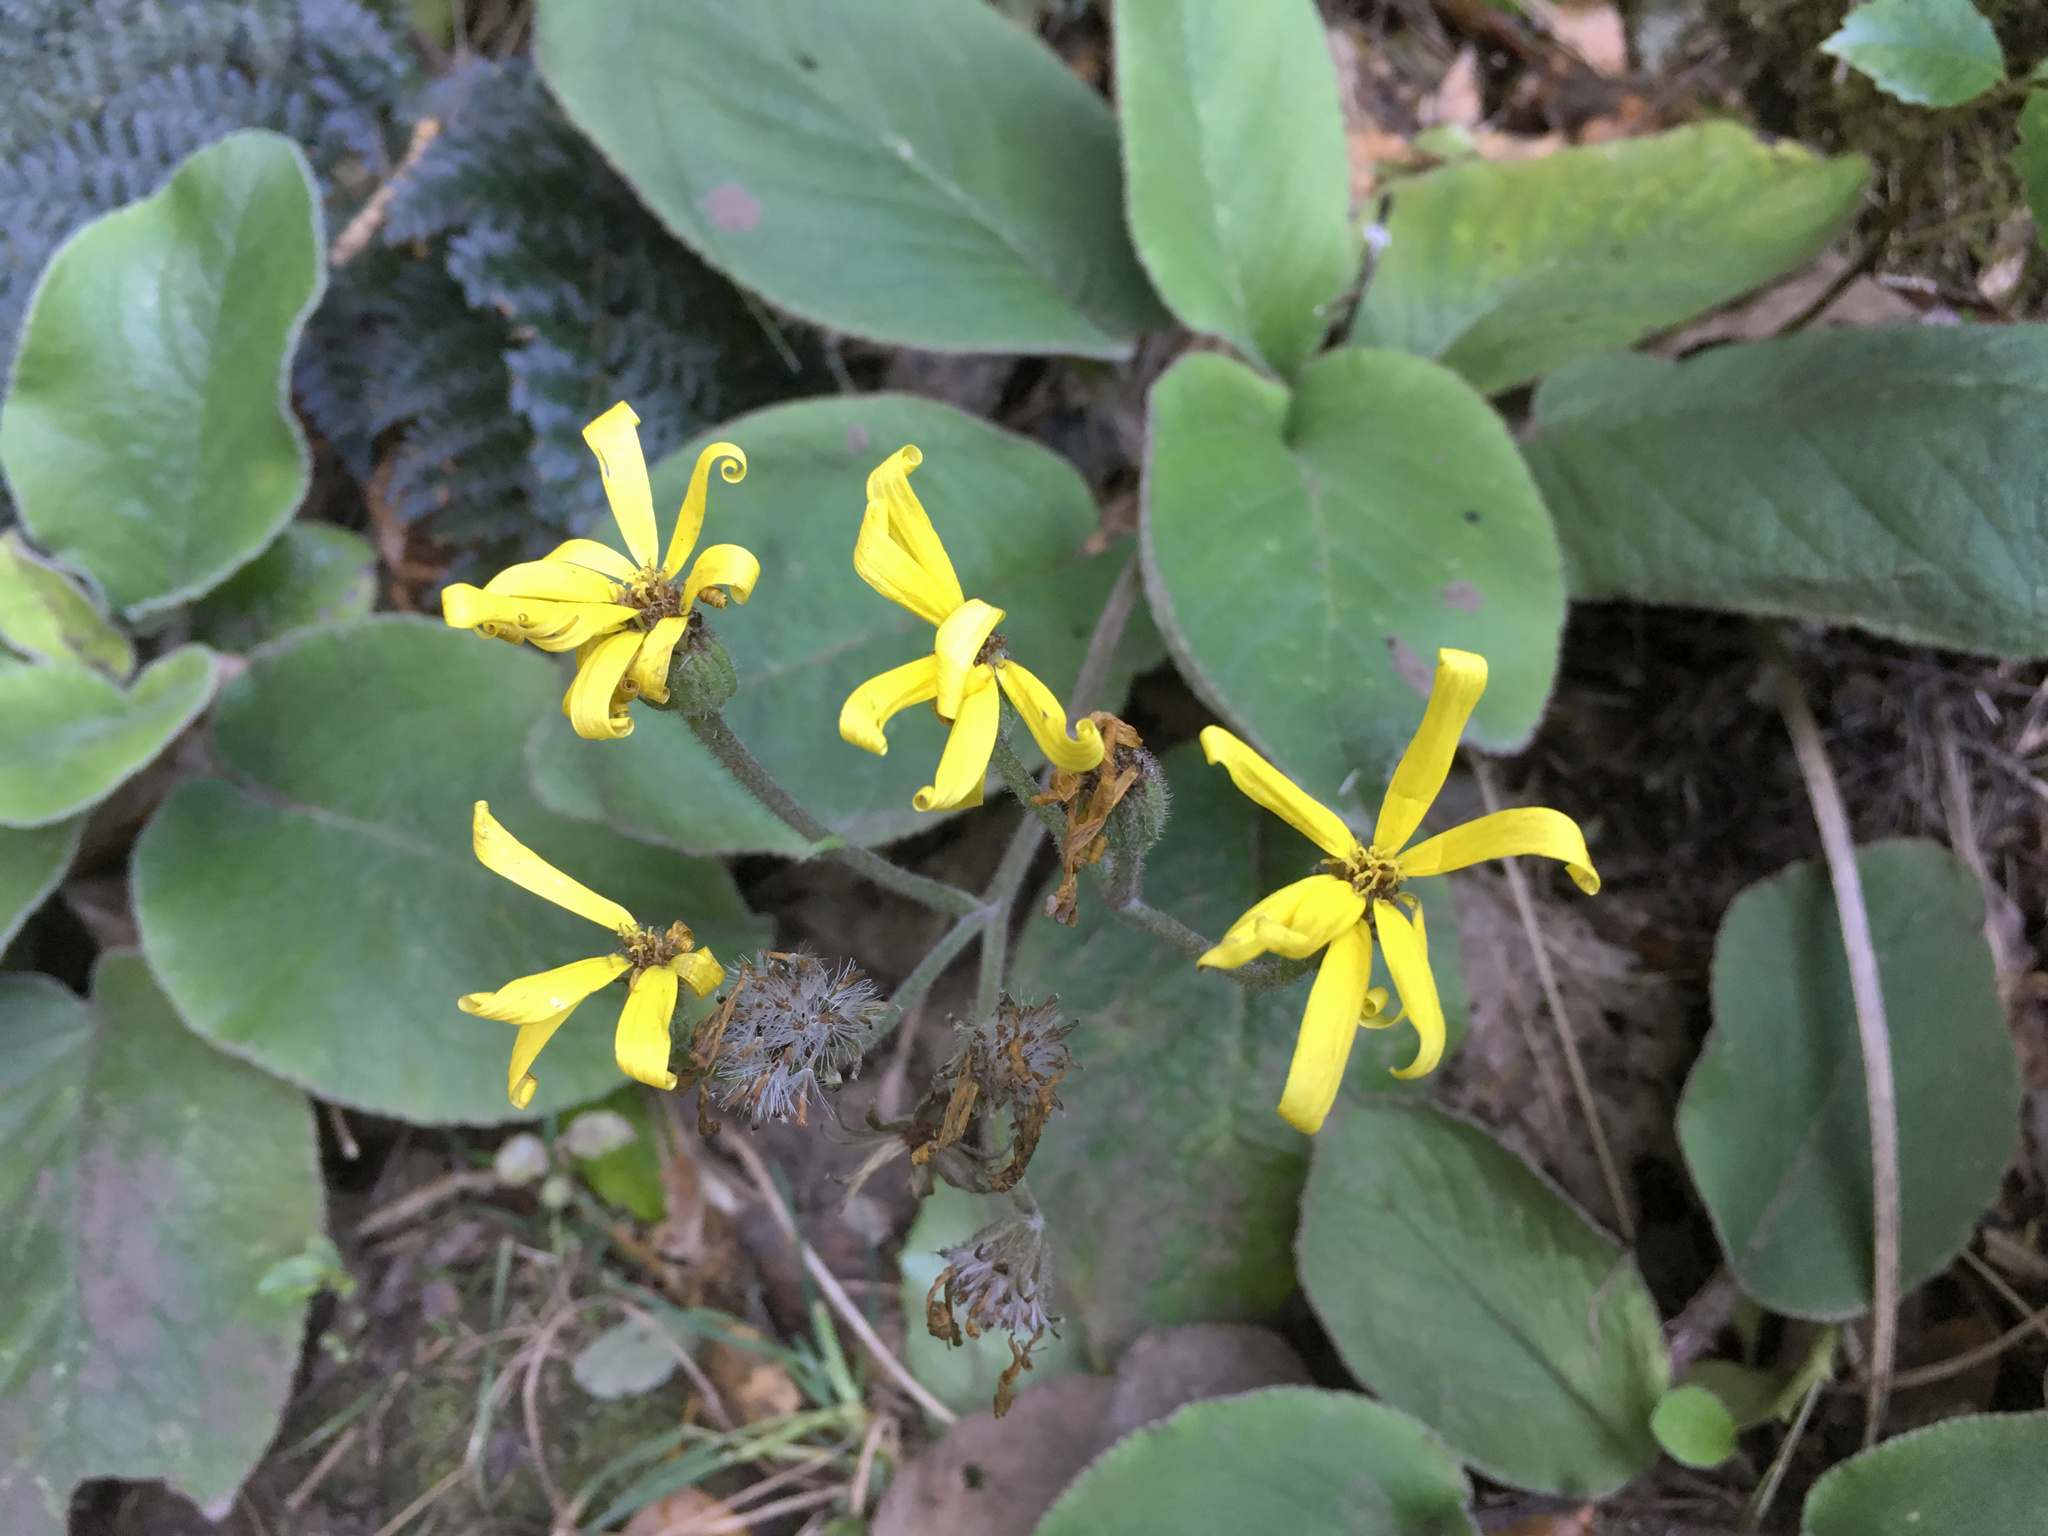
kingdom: Plantae
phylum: Tracheophyta
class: Magnoliopsida
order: Asterales
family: Asteraceae
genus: Brachyglottis
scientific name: Brachyglottis lagopus
